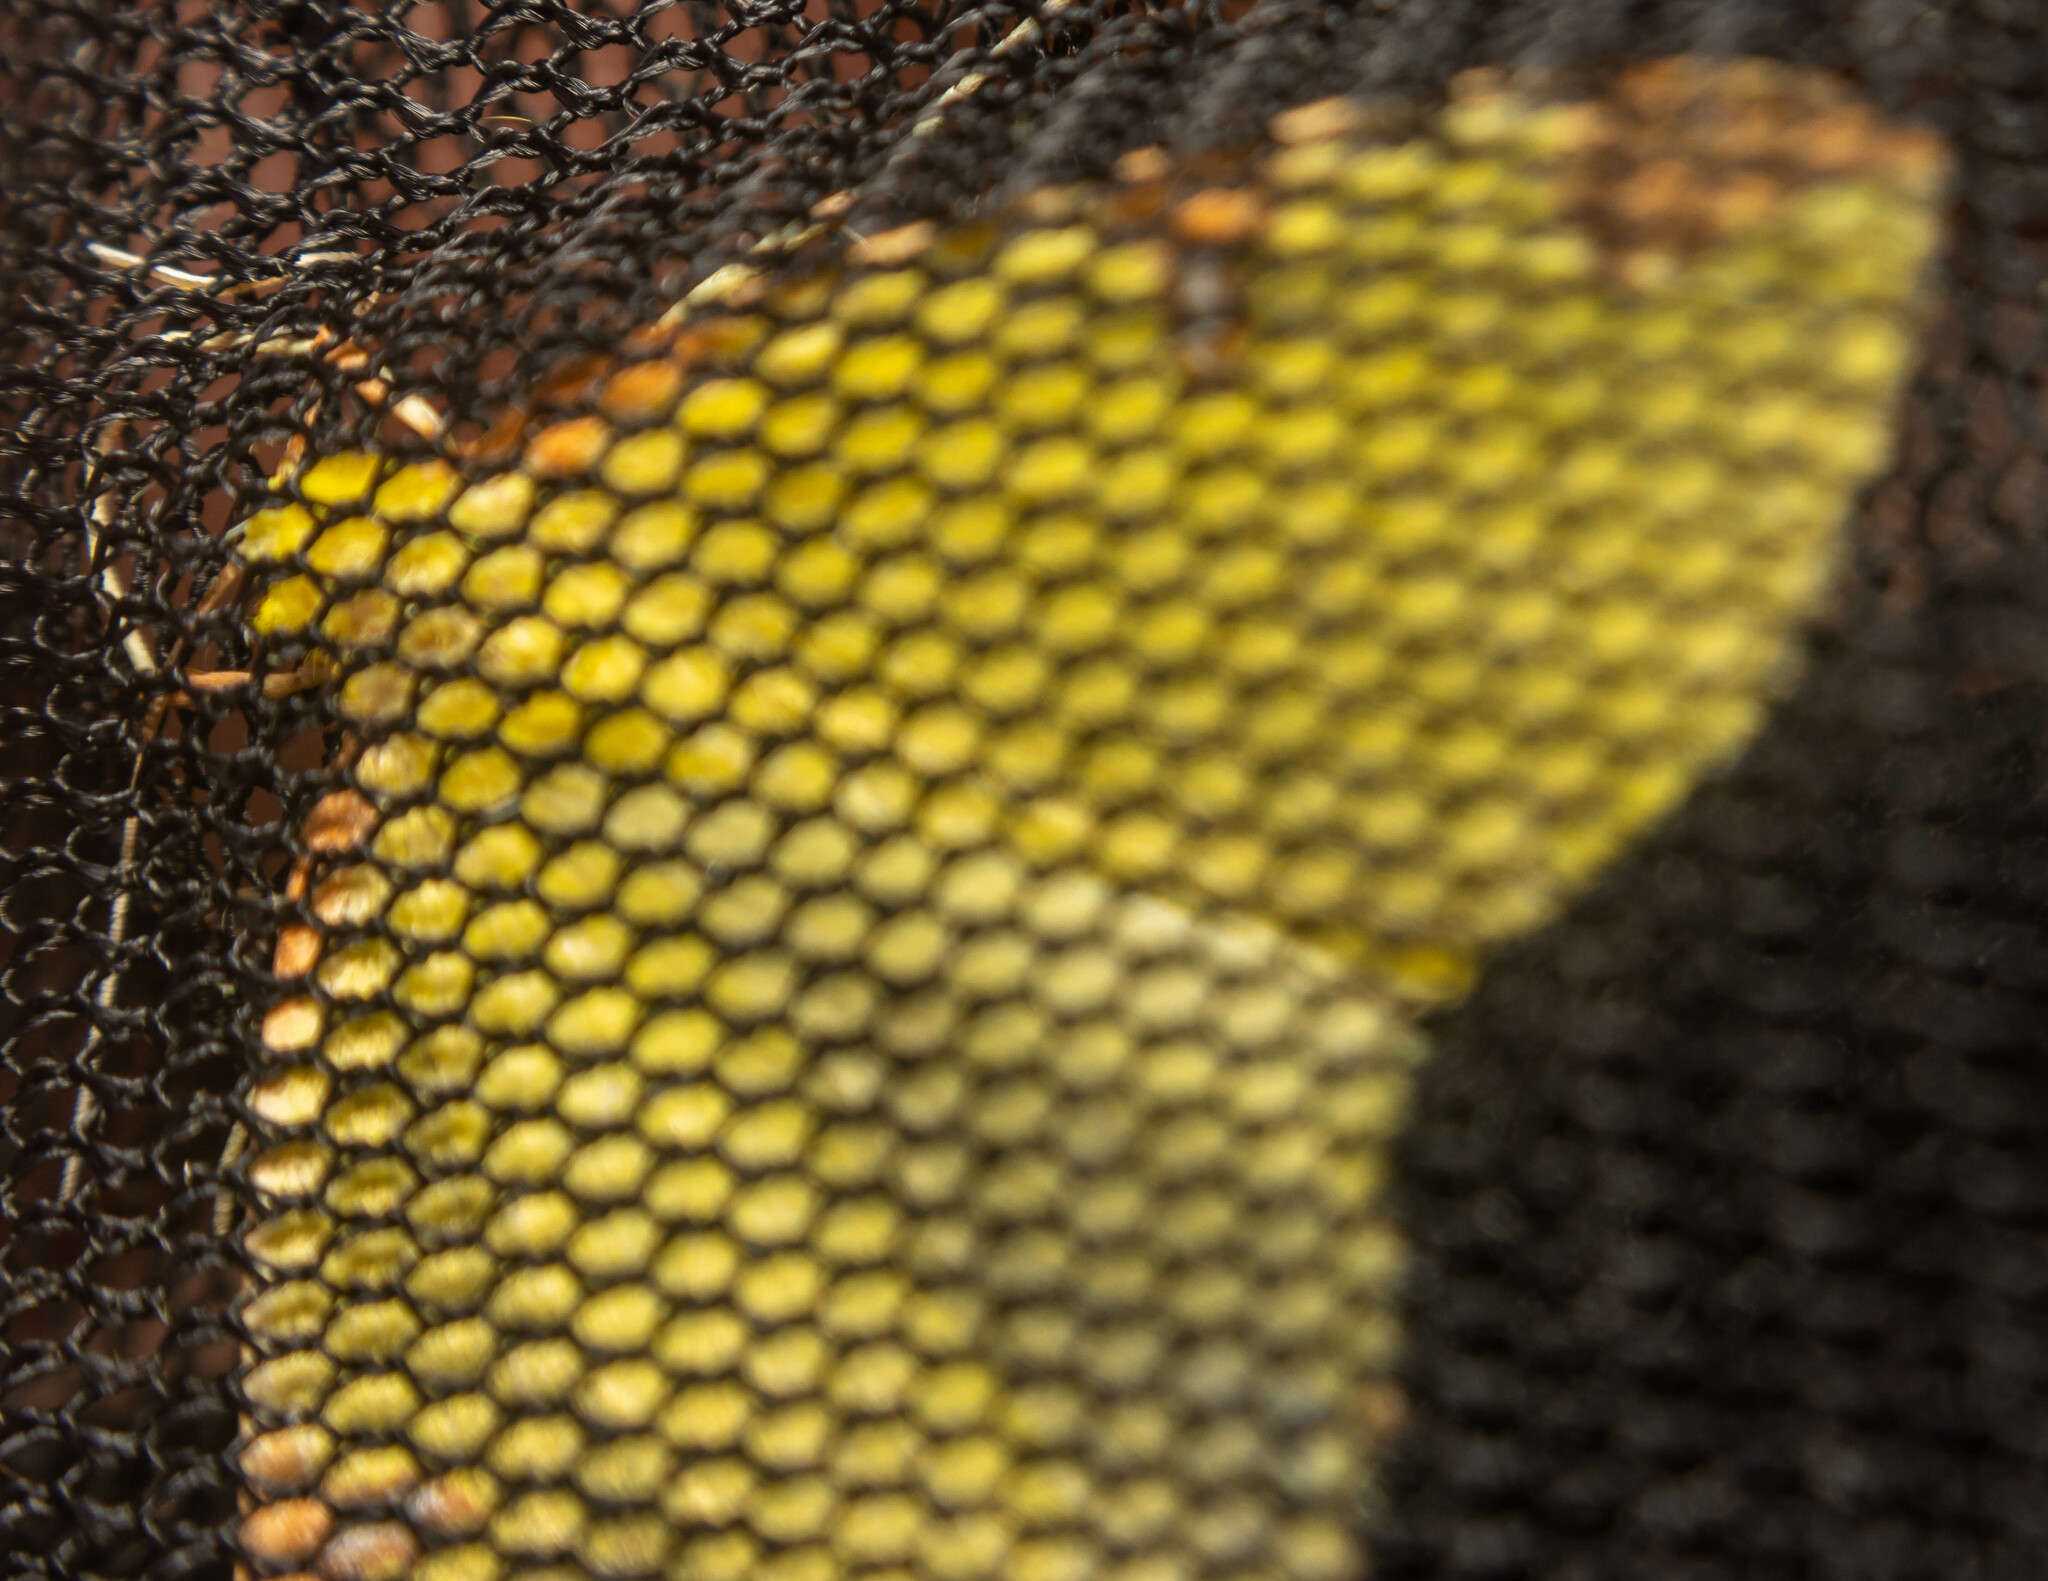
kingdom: Animalia
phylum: Arthropoda
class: Insecta
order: Lepidoptera
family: Geometridae
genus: Opisthograptis
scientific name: Opisthograptis luteolata
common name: Brimstone moth
